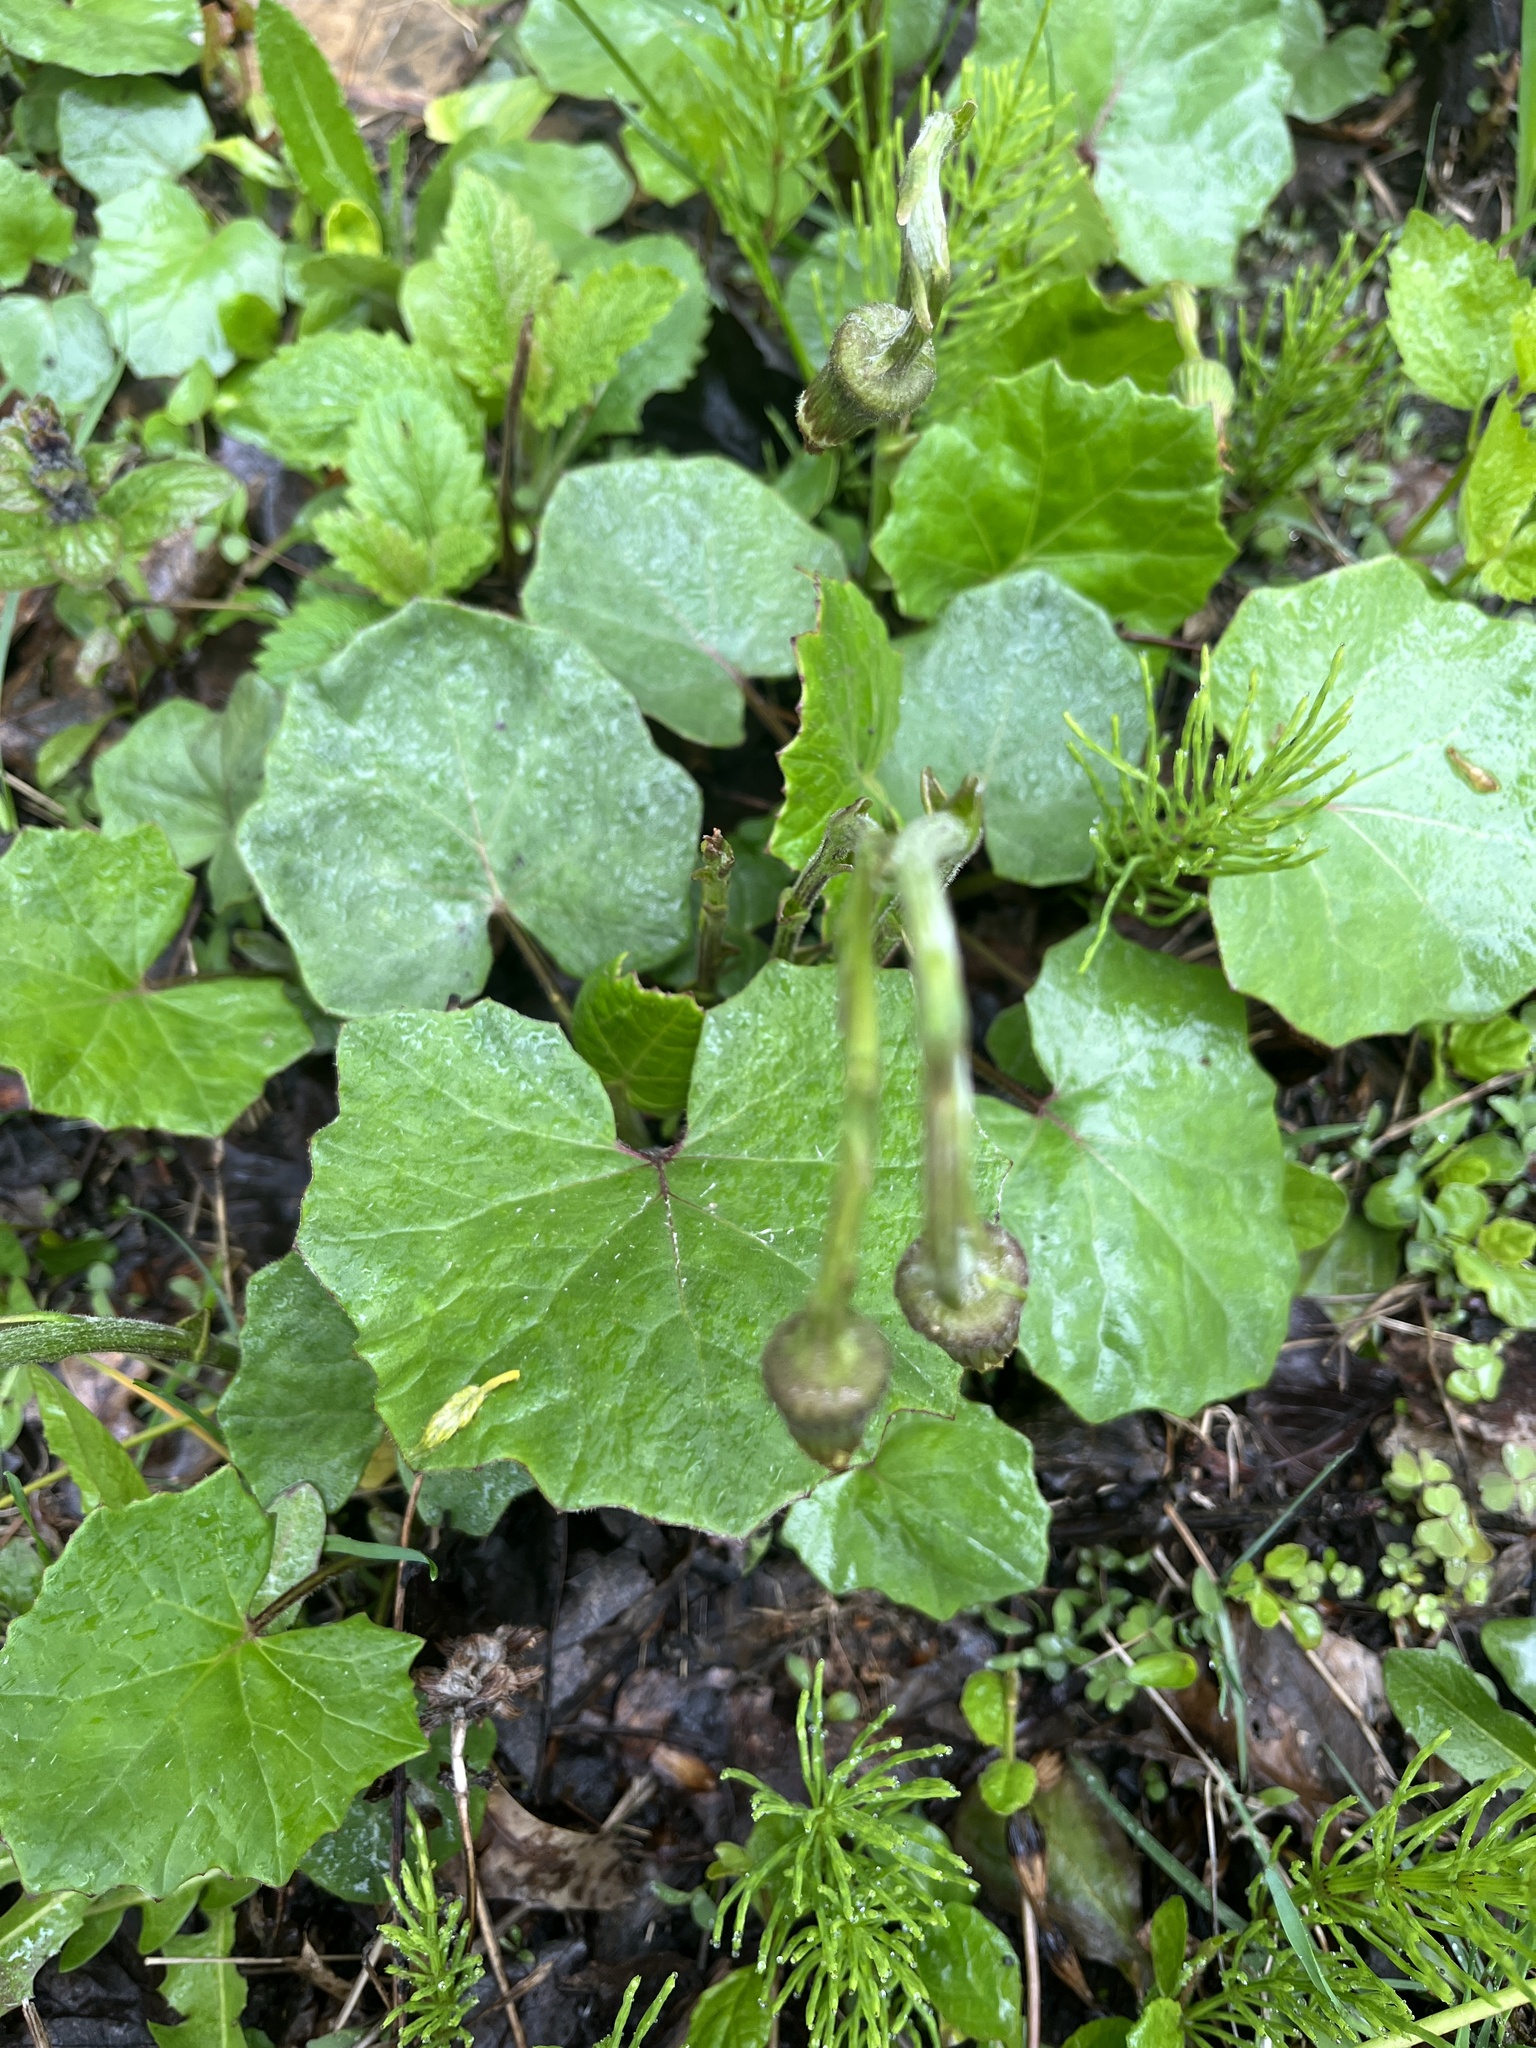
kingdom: Plantae
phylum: Tracheophyta
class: Magnoliopsida
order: Asterales
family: Asteraceae
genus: Tussilago
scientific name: Tussilago farfara
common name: Coltsfoot
